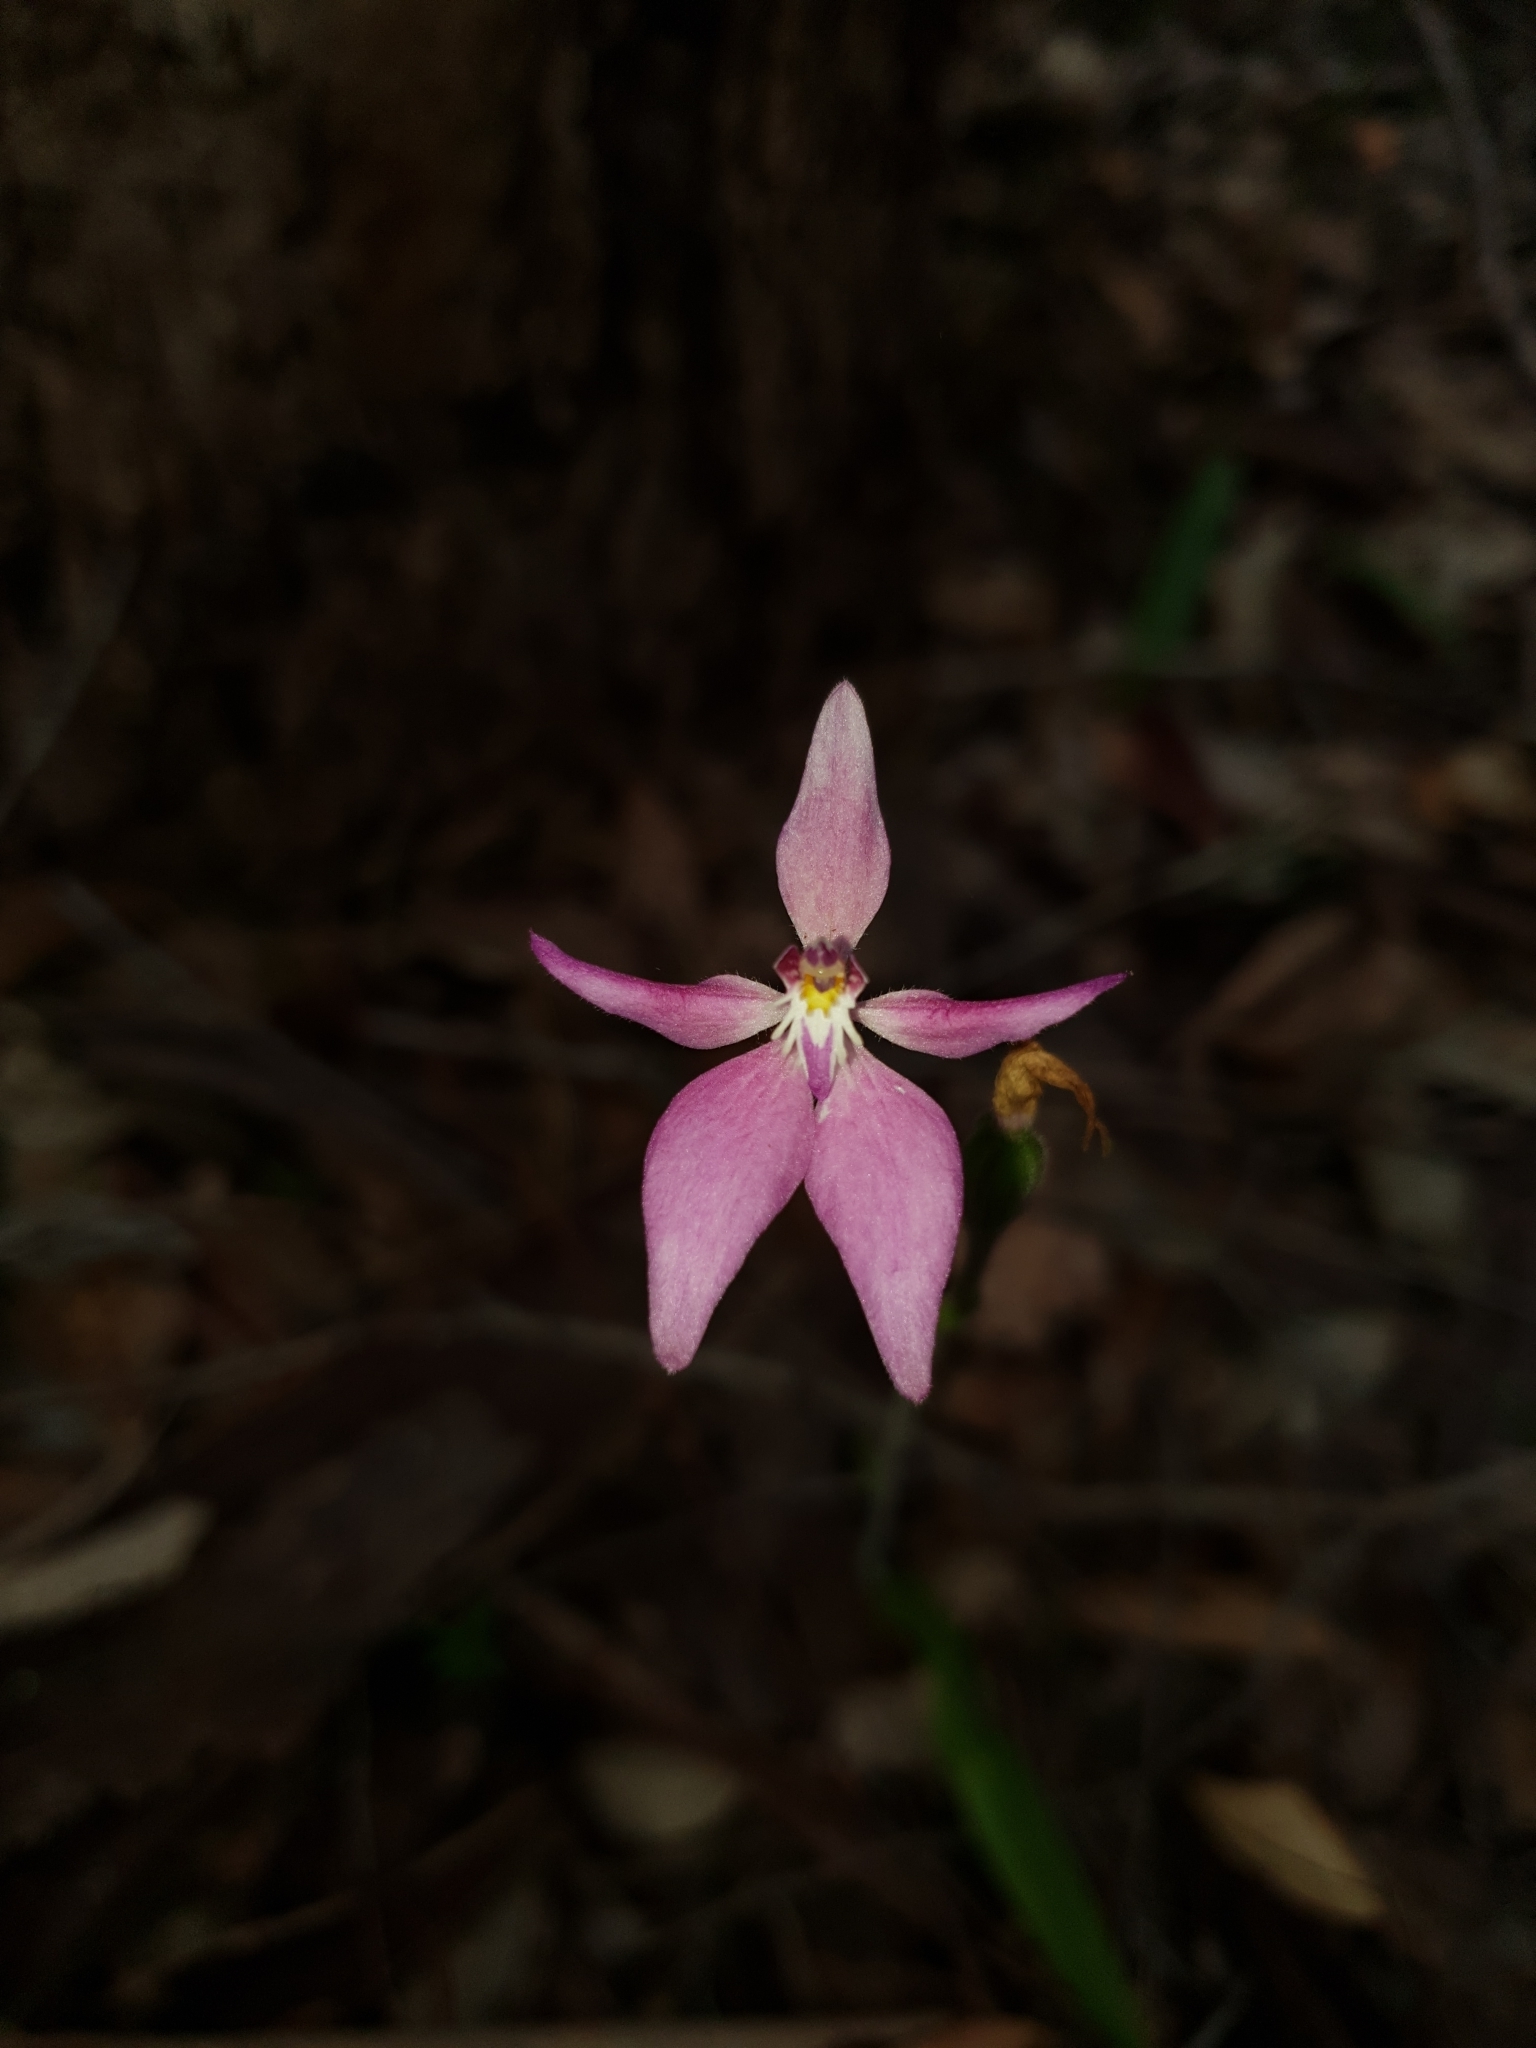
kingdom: Plantae
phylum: Tracheophyta
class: Liliopsida
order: Asparagales
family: Orchidaceae
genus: Caladenia
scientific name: Caladenia latifolia
